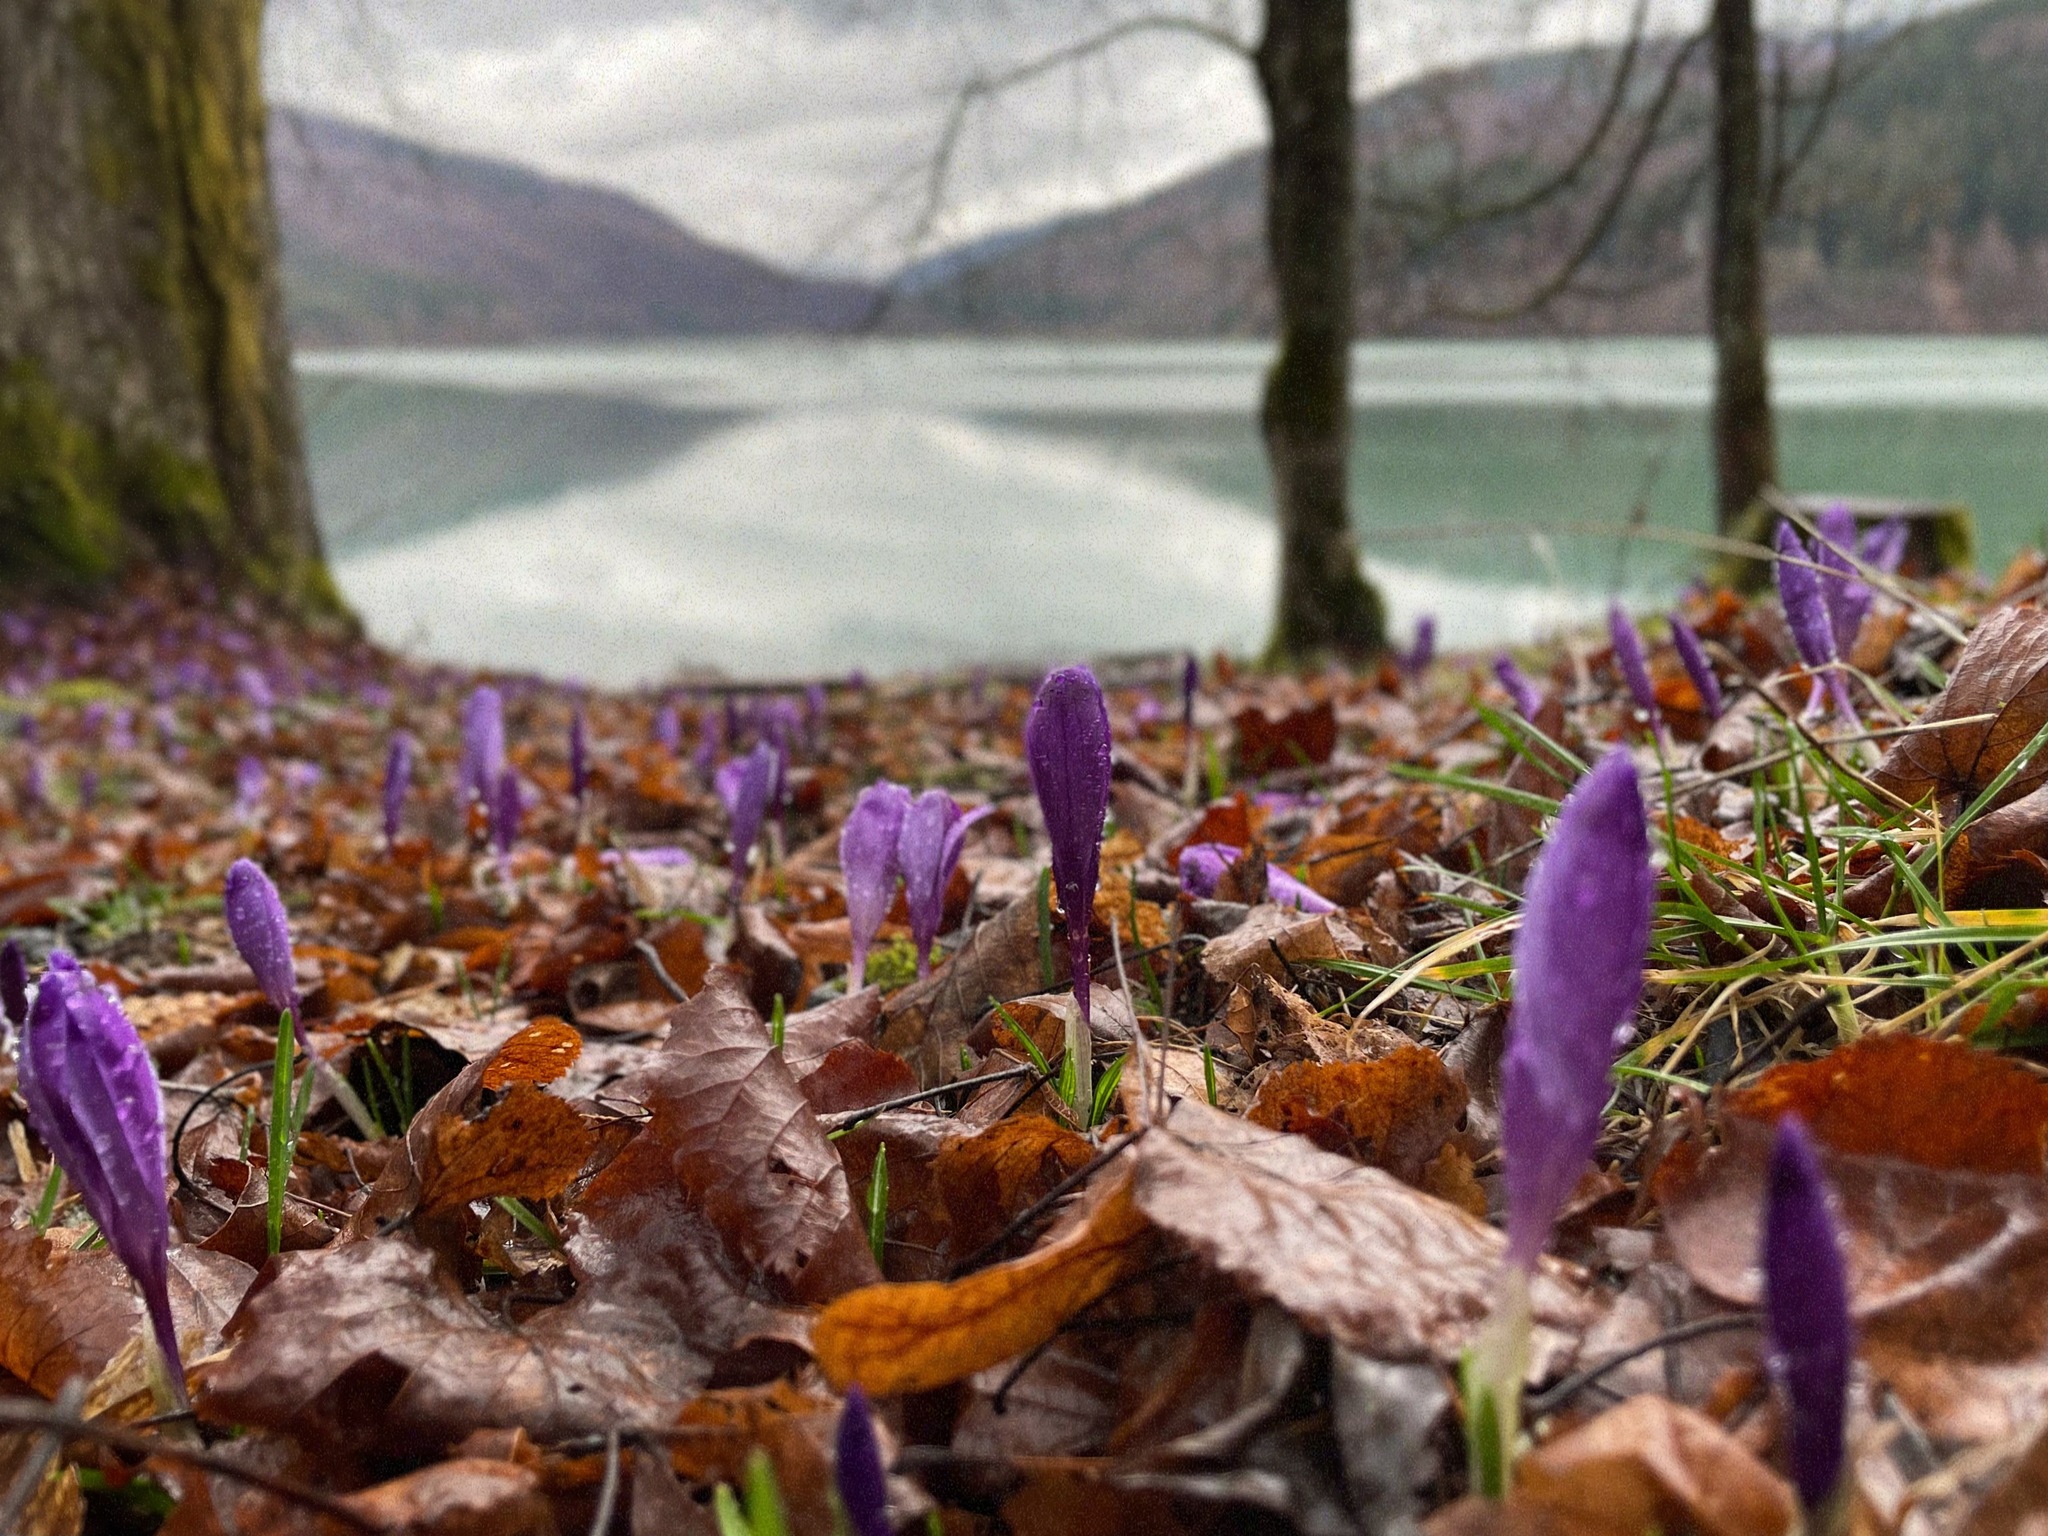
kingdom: Plantae
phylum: Tracheophyta
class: Liliopsida
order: Asparagales
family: Iridaceae
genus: Crocus
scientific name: Crocus heuffelianus
